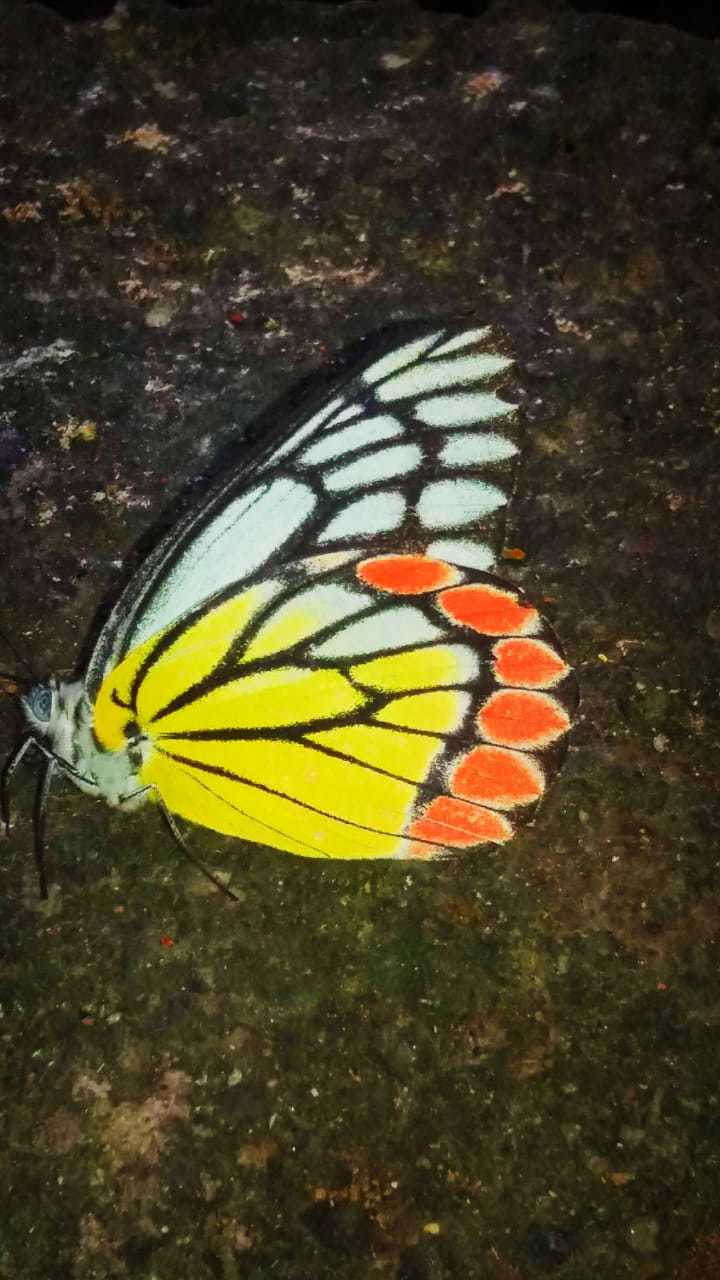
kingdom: Animalia
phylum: Arthropoda
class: Insecta
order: Lepidoptera
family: Pieridae
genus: Delias
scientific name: Delias eucharis
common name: Common jezebel
